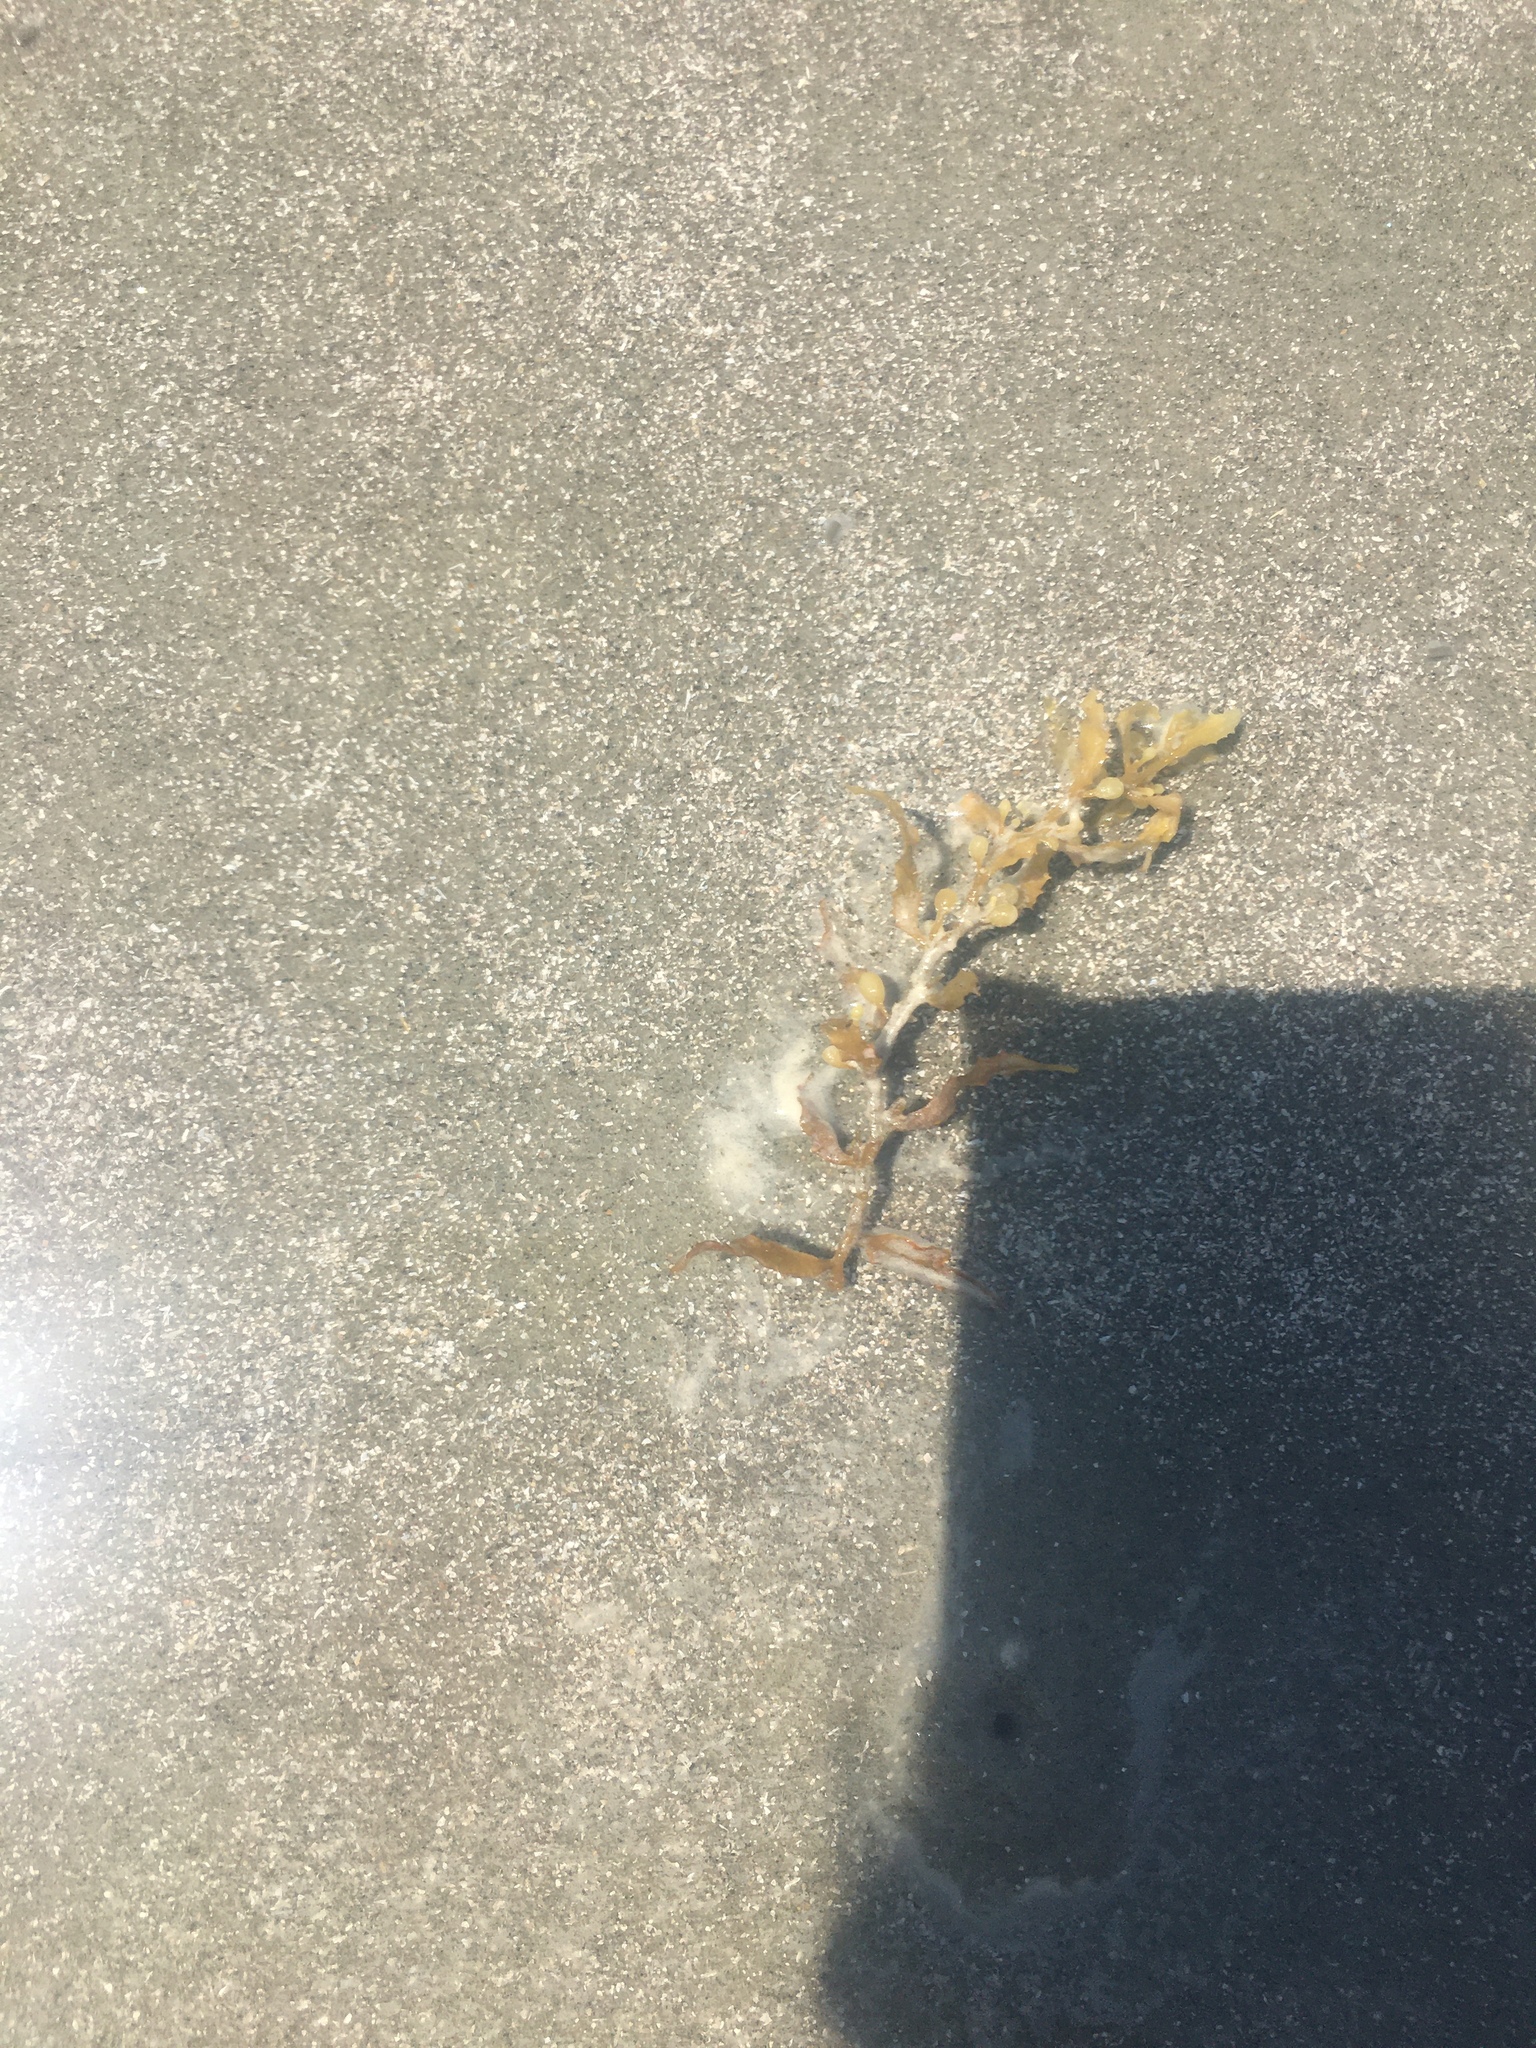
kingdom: Chromista
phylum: Ochrophyta
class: Phaeophyceae
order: Fucales
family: Sargassaceae
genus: Sargassum
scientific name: Sargassum fluitans
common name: Sargassum seaweed
